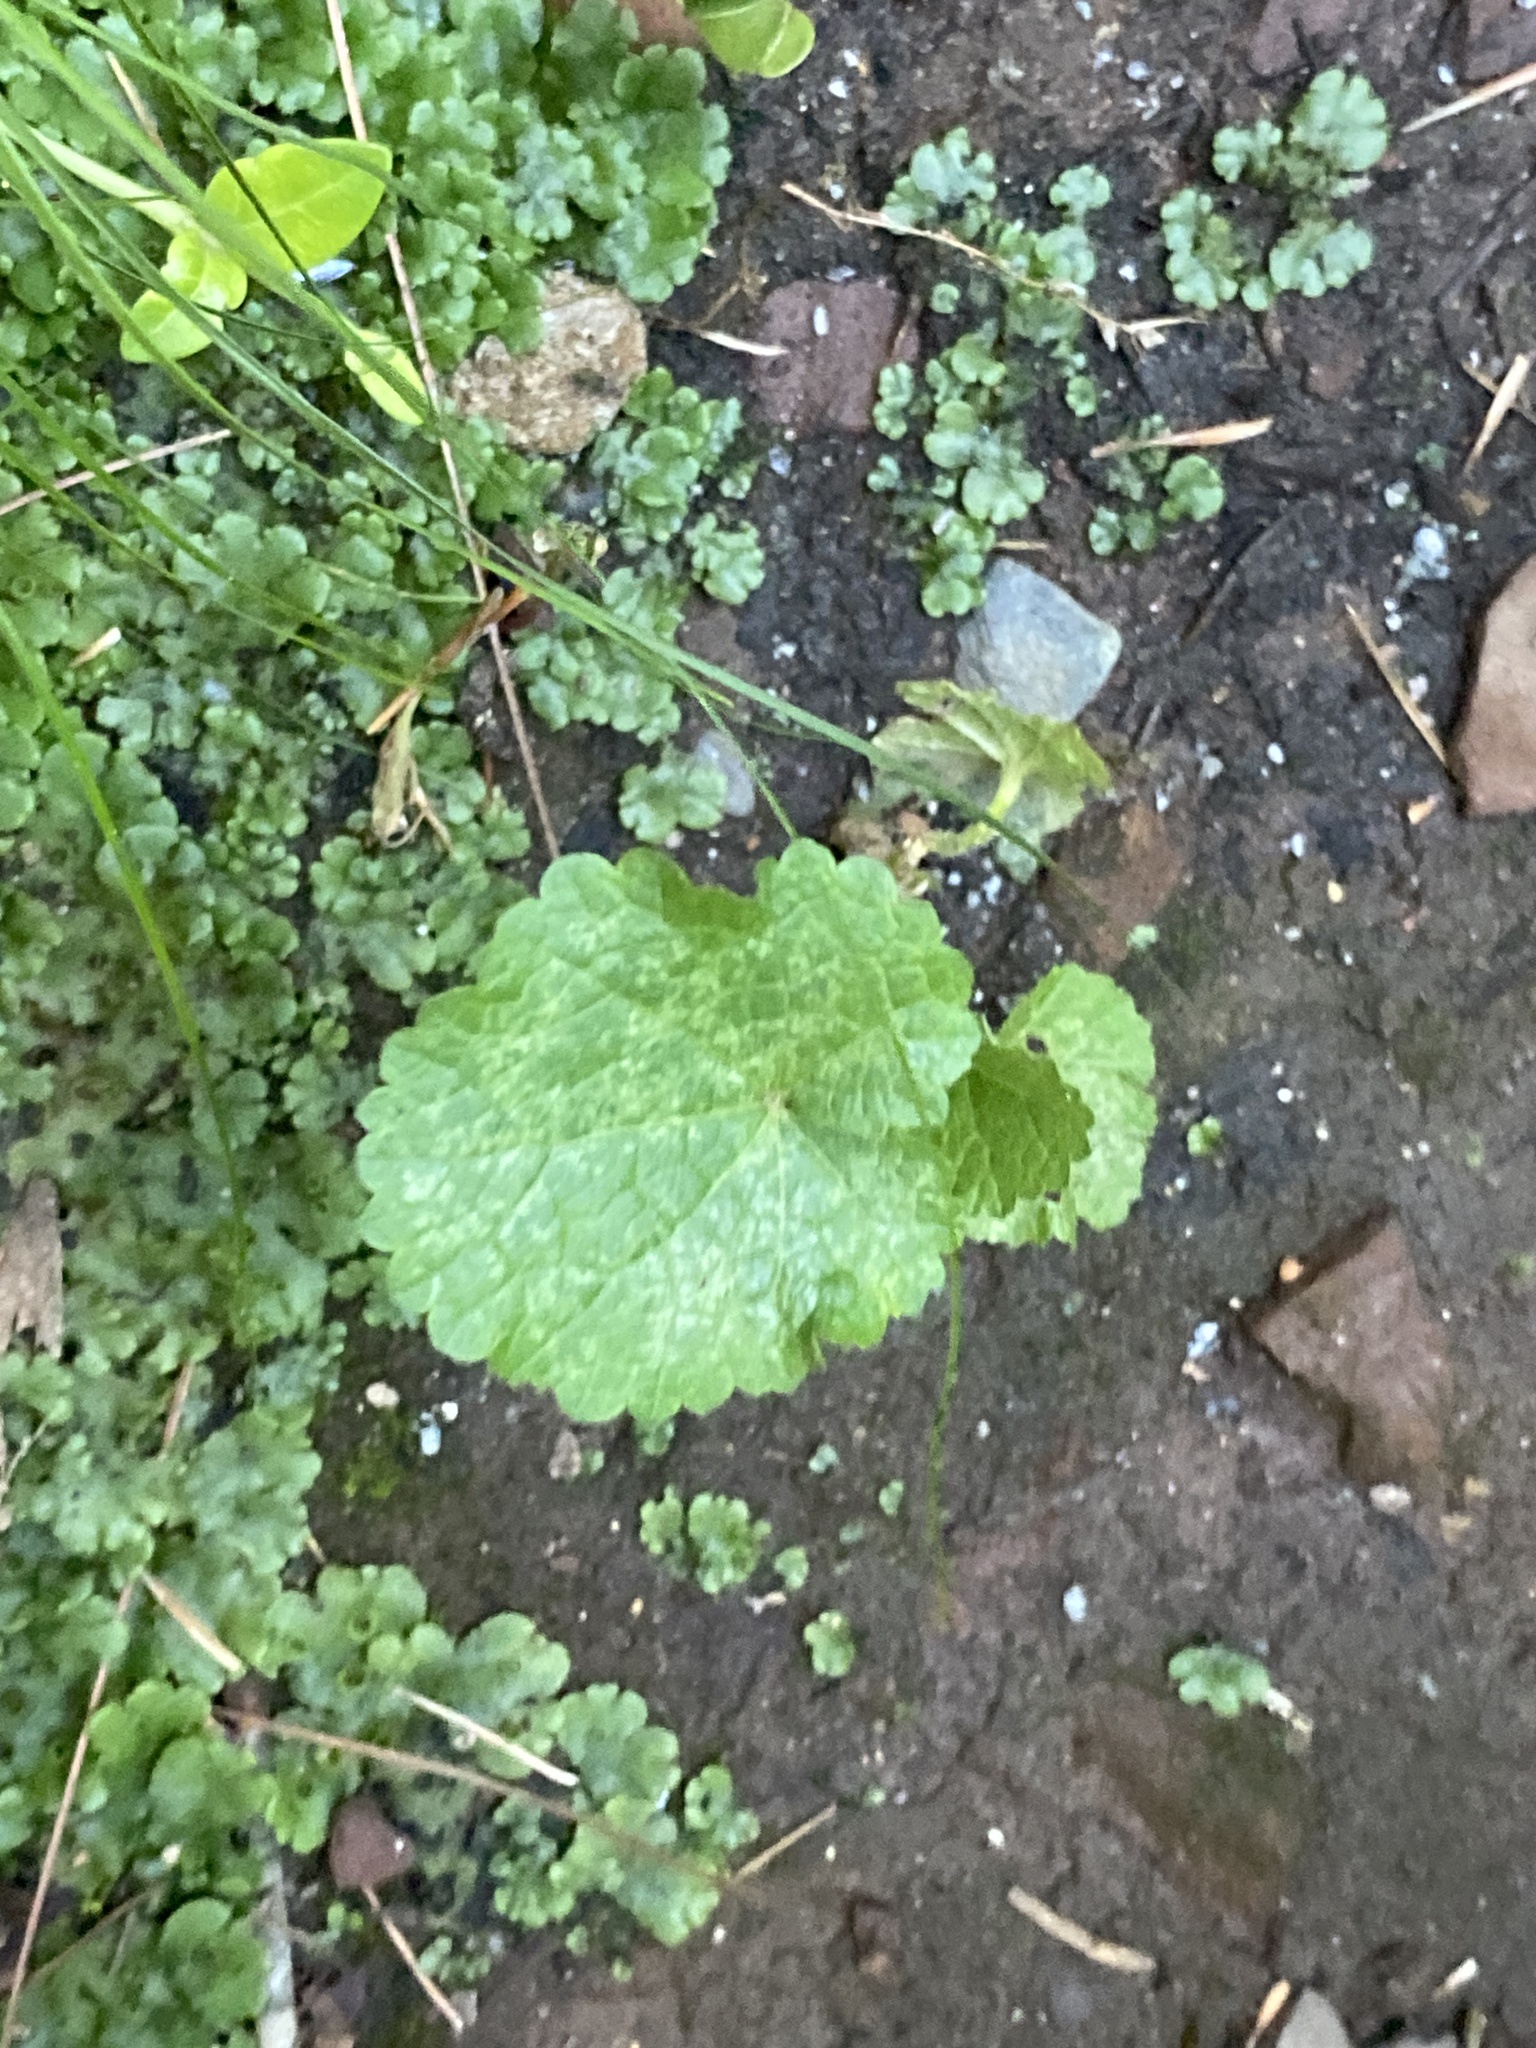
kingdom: Plantae
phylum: Tracheophyta
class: Magnoliopsida
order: Brassicales
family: Brassicaceae
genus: Alliaria
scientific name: Alliaria petiolata
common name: Garlic mustard
